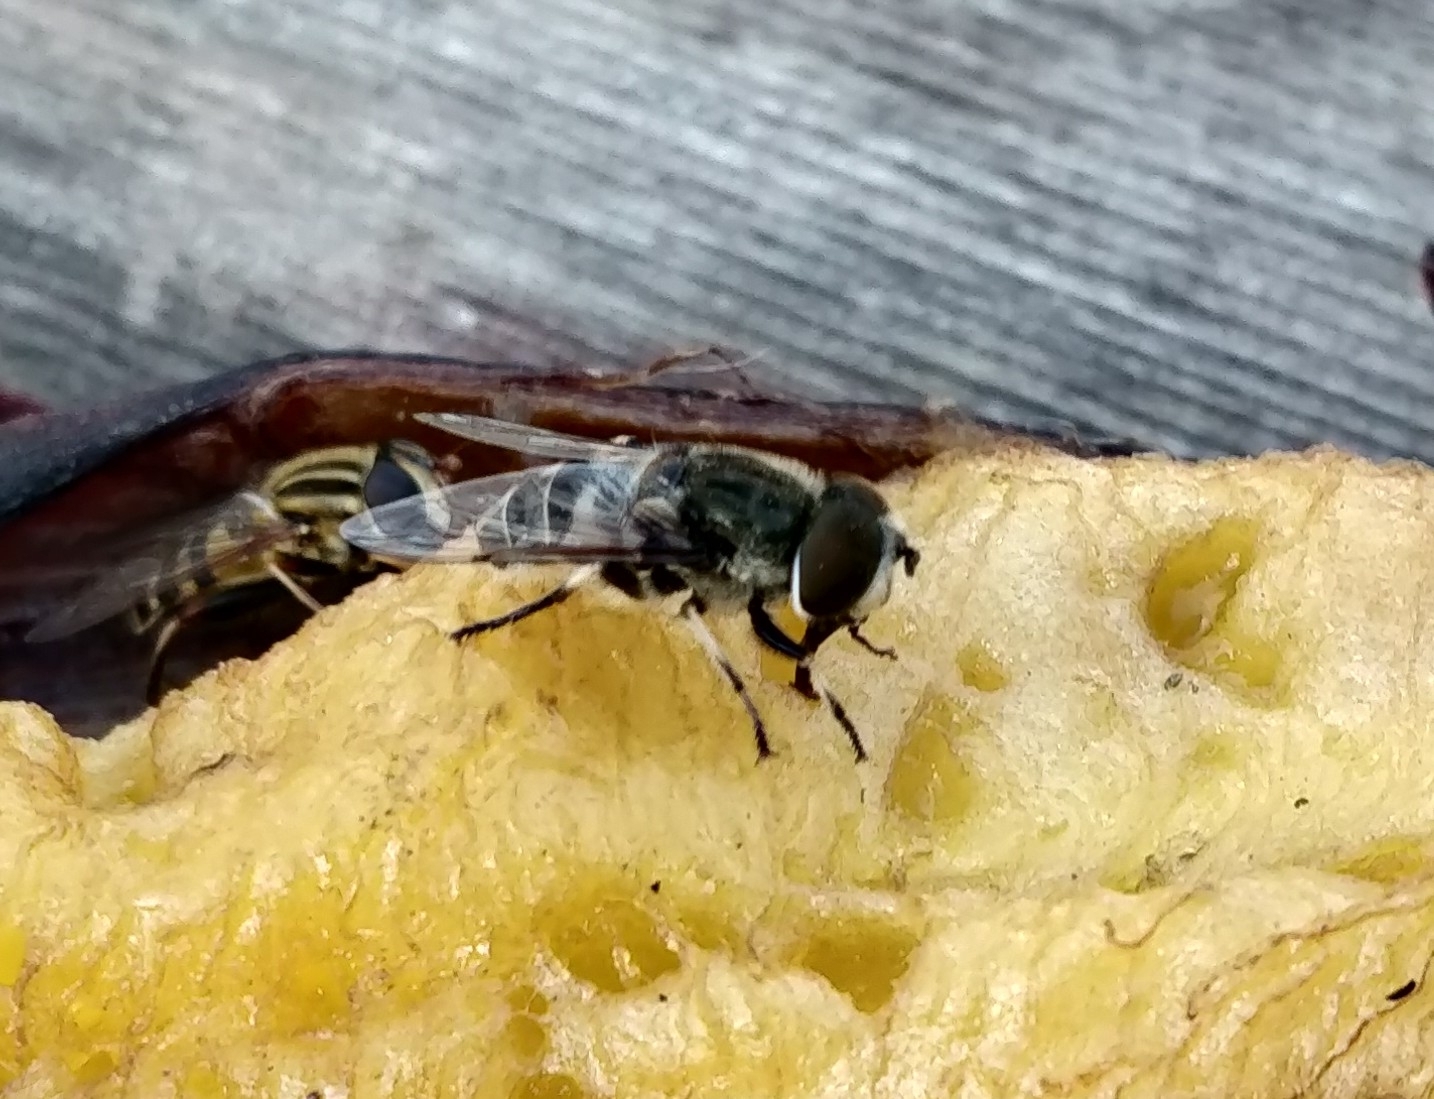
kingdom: Animalia
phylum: Arthropoda
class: Insecta
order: Diptera
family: Syrphidae
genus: Eristalis
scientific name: Eristalis dimidiata
